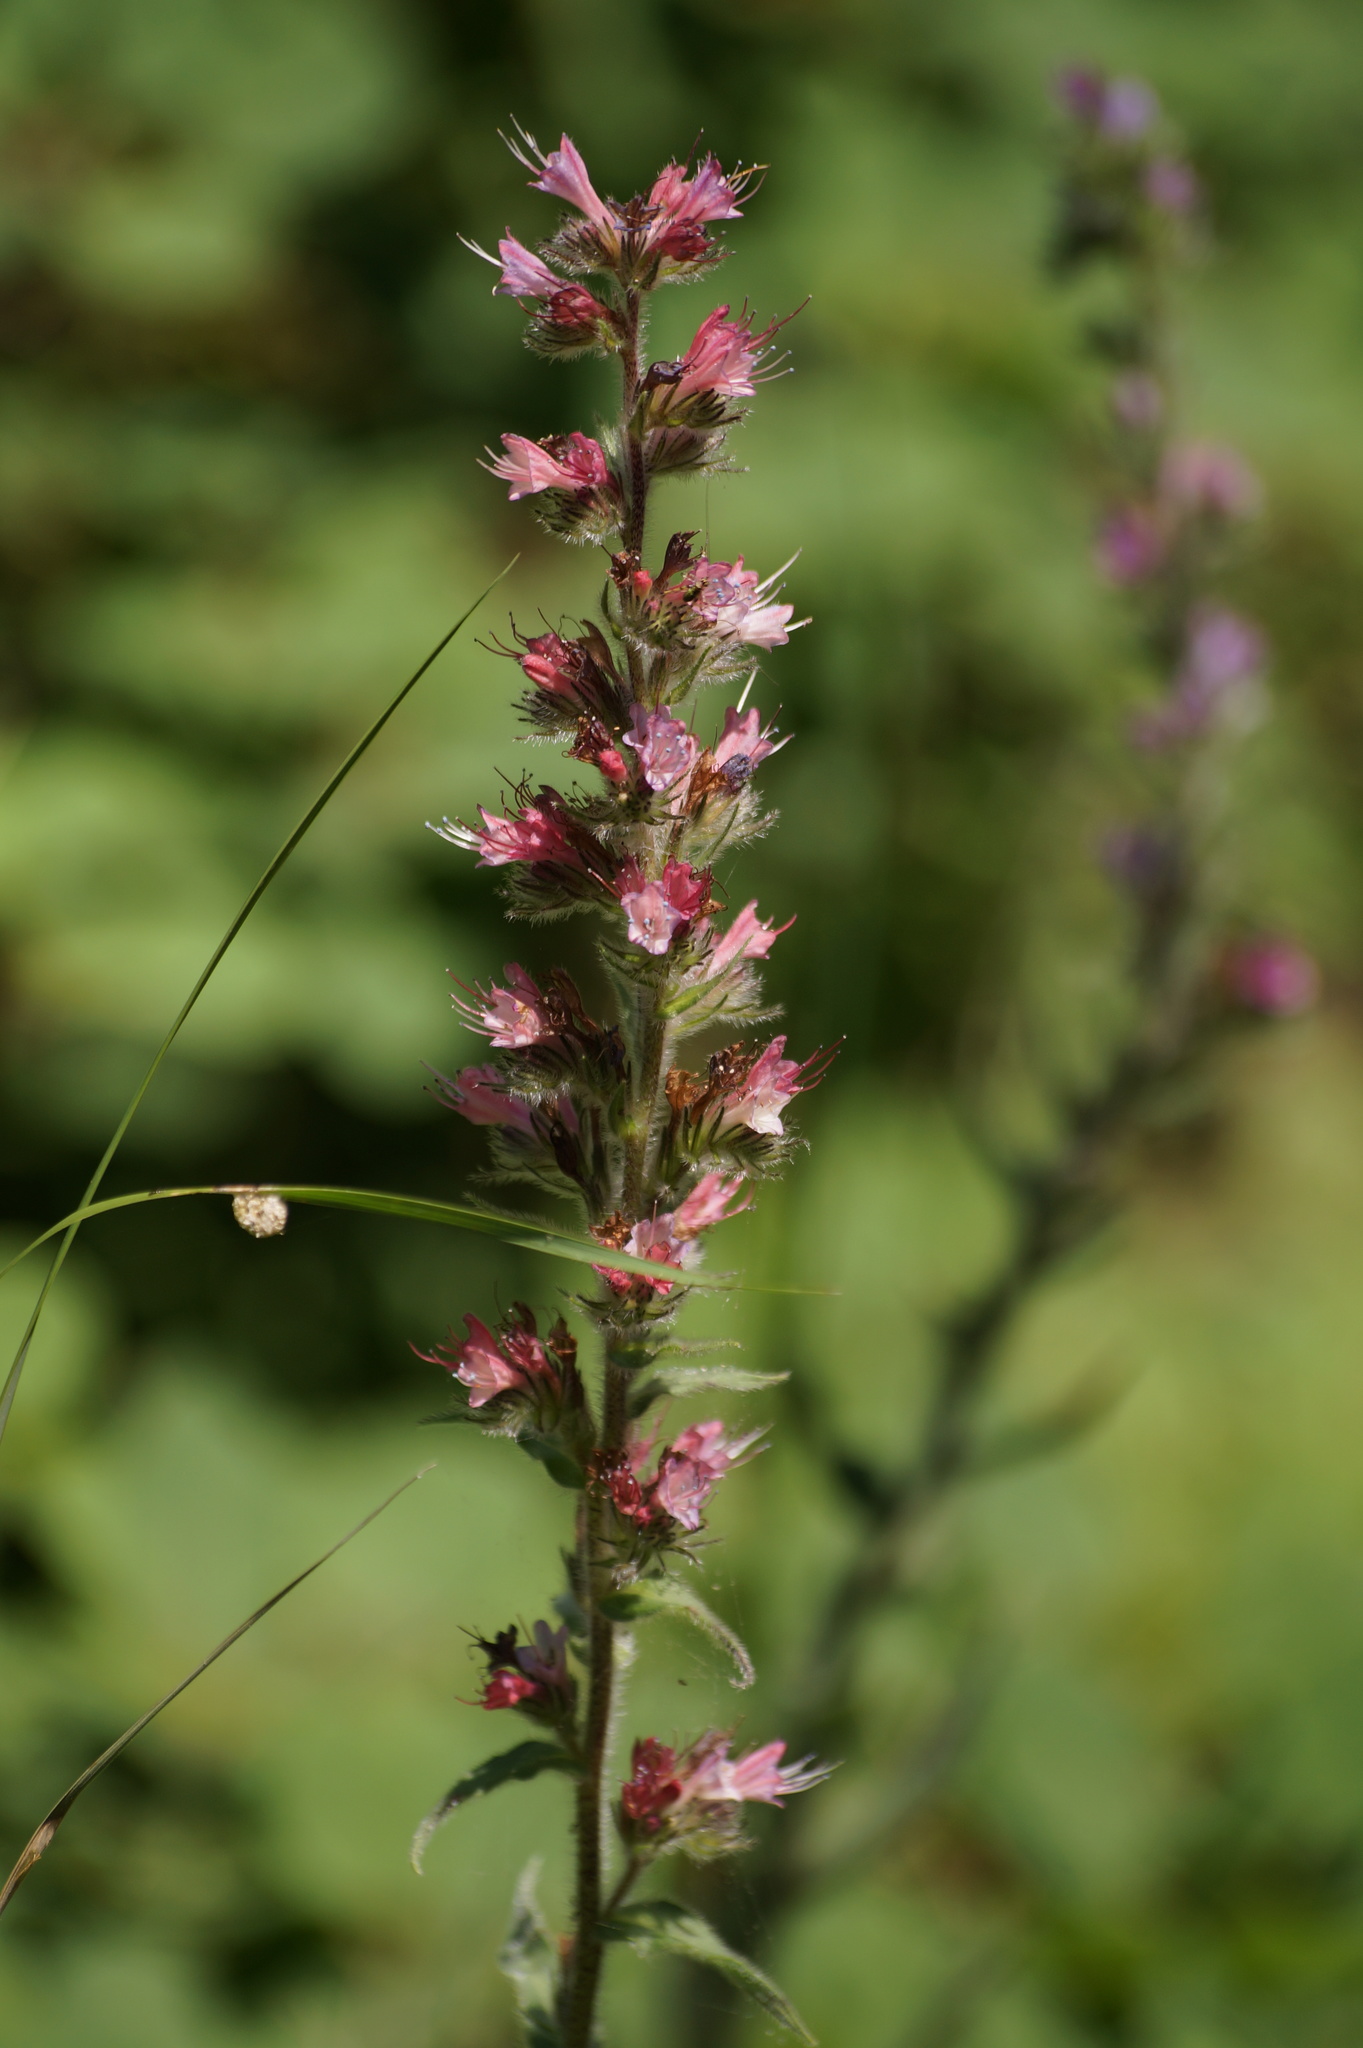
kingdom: Plantae
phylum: Tracheophyta
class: Magnoliopsida
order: Boraginales
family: Boraginaceae
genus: Pontechium
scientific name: Pontechium maculatum
